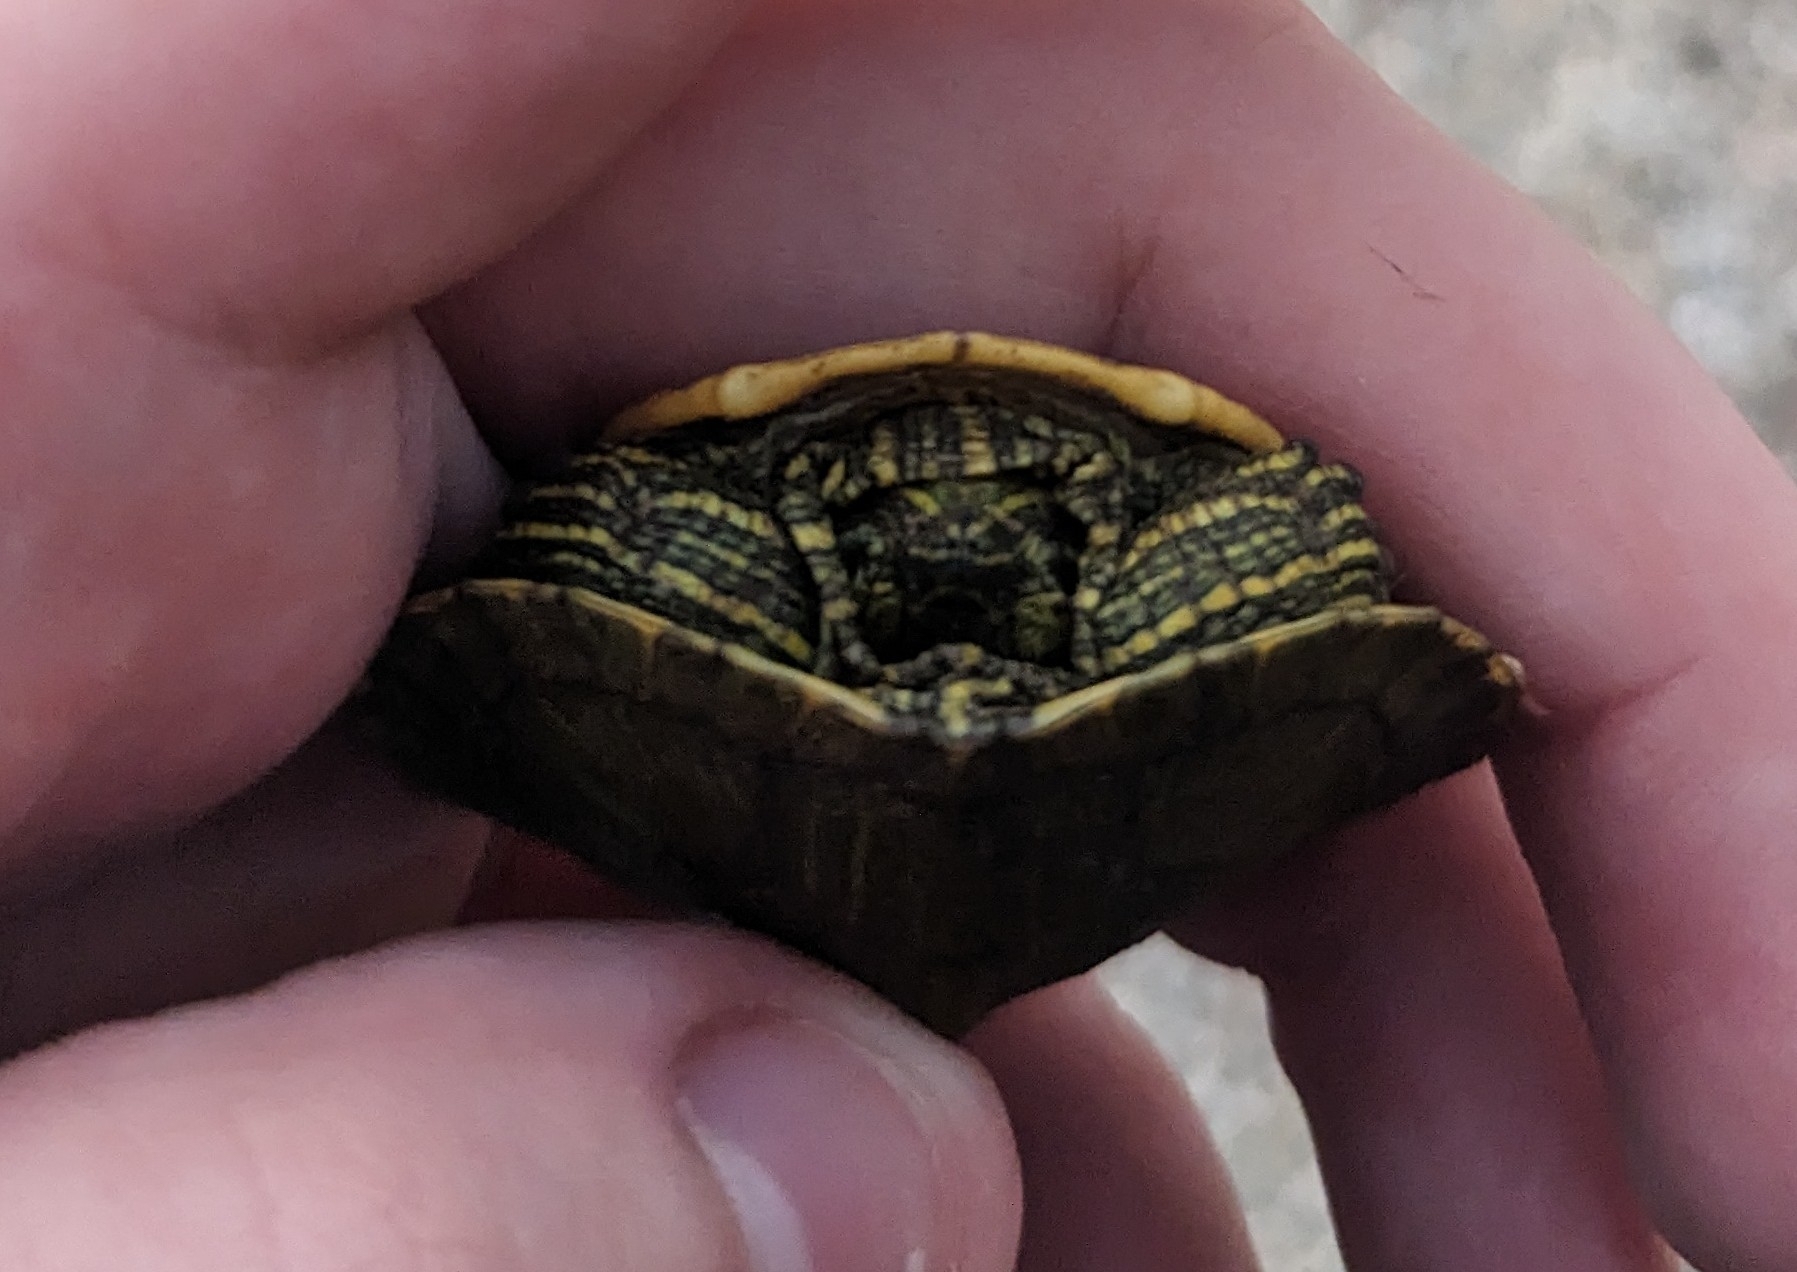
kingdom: Animalia
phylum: Chordata
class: Testudines
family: Emydidae
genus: Trachemys
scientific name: Trachemys scripta
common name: Slider
